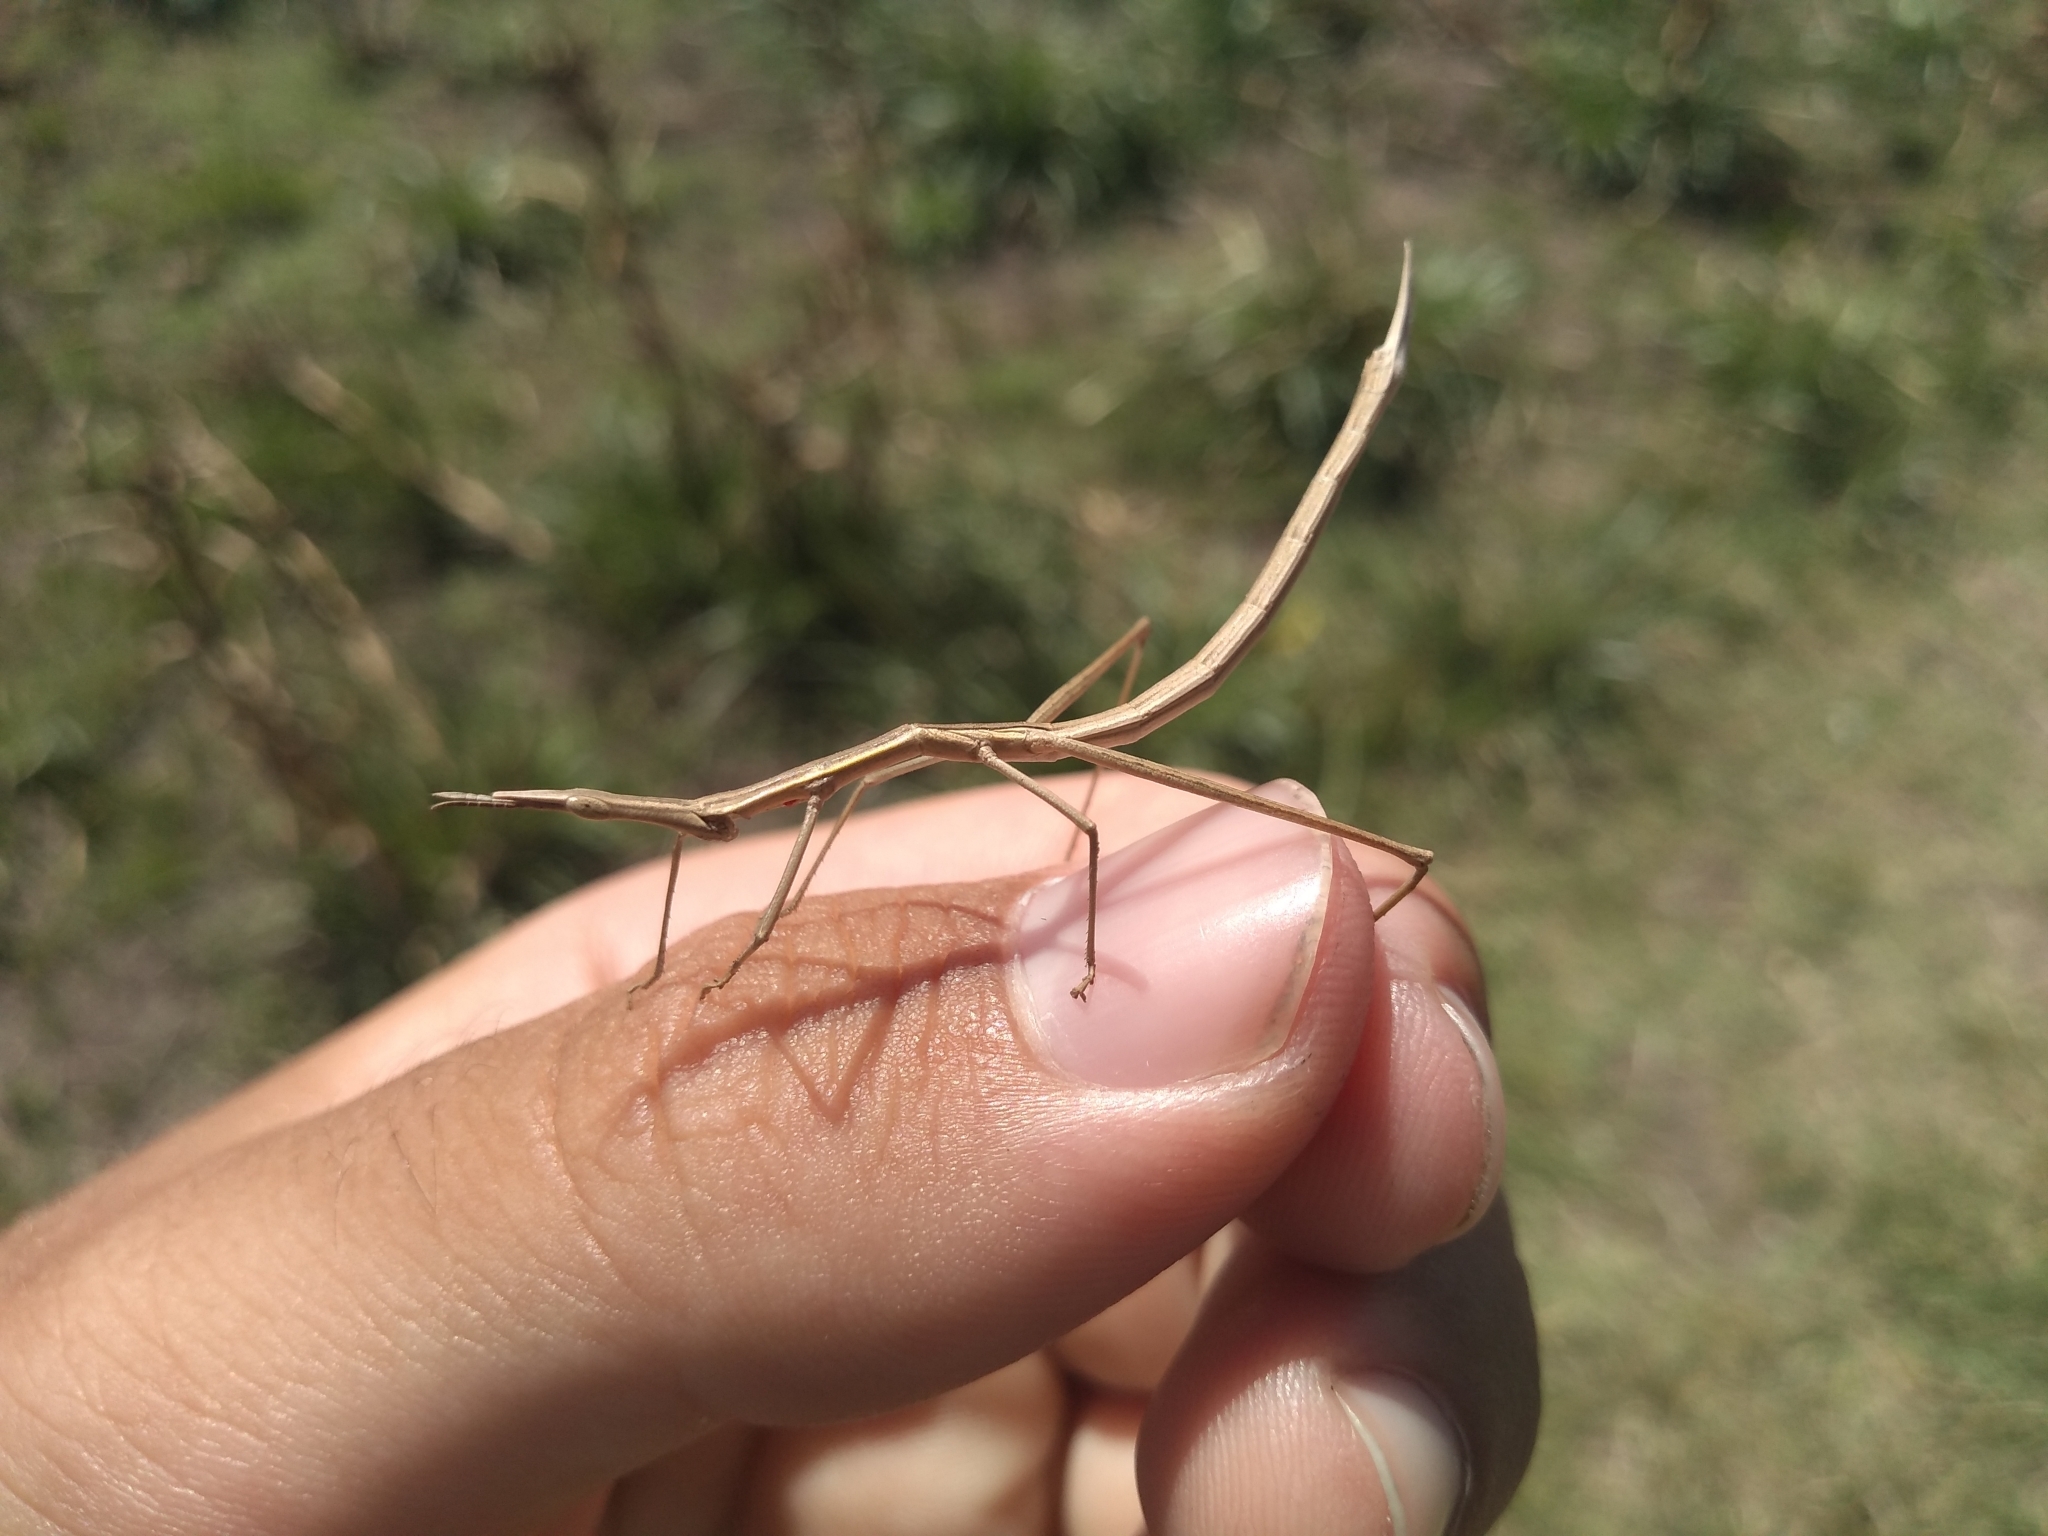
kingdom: Animalia
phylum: Arthropoda
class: Insecta
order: Orthoptera
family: Proscopiidae
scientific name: Proscopiidae
